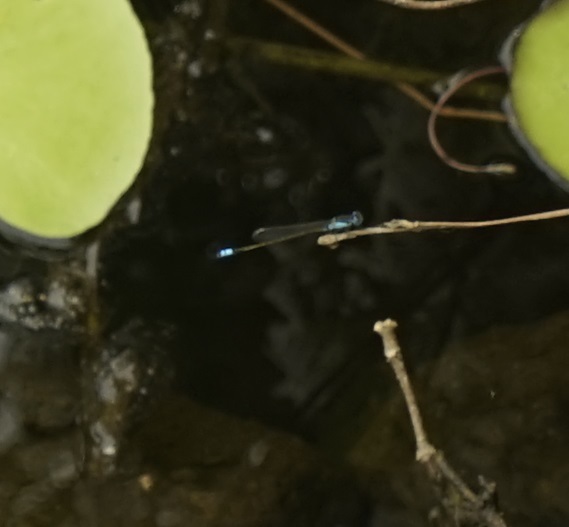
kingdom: Animalia
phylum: Arthropoda
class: Insecta
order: Odonata
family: Coenagrionidae
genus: Ischnura
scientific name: Ischnura heterosticta
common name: Common bluetail
